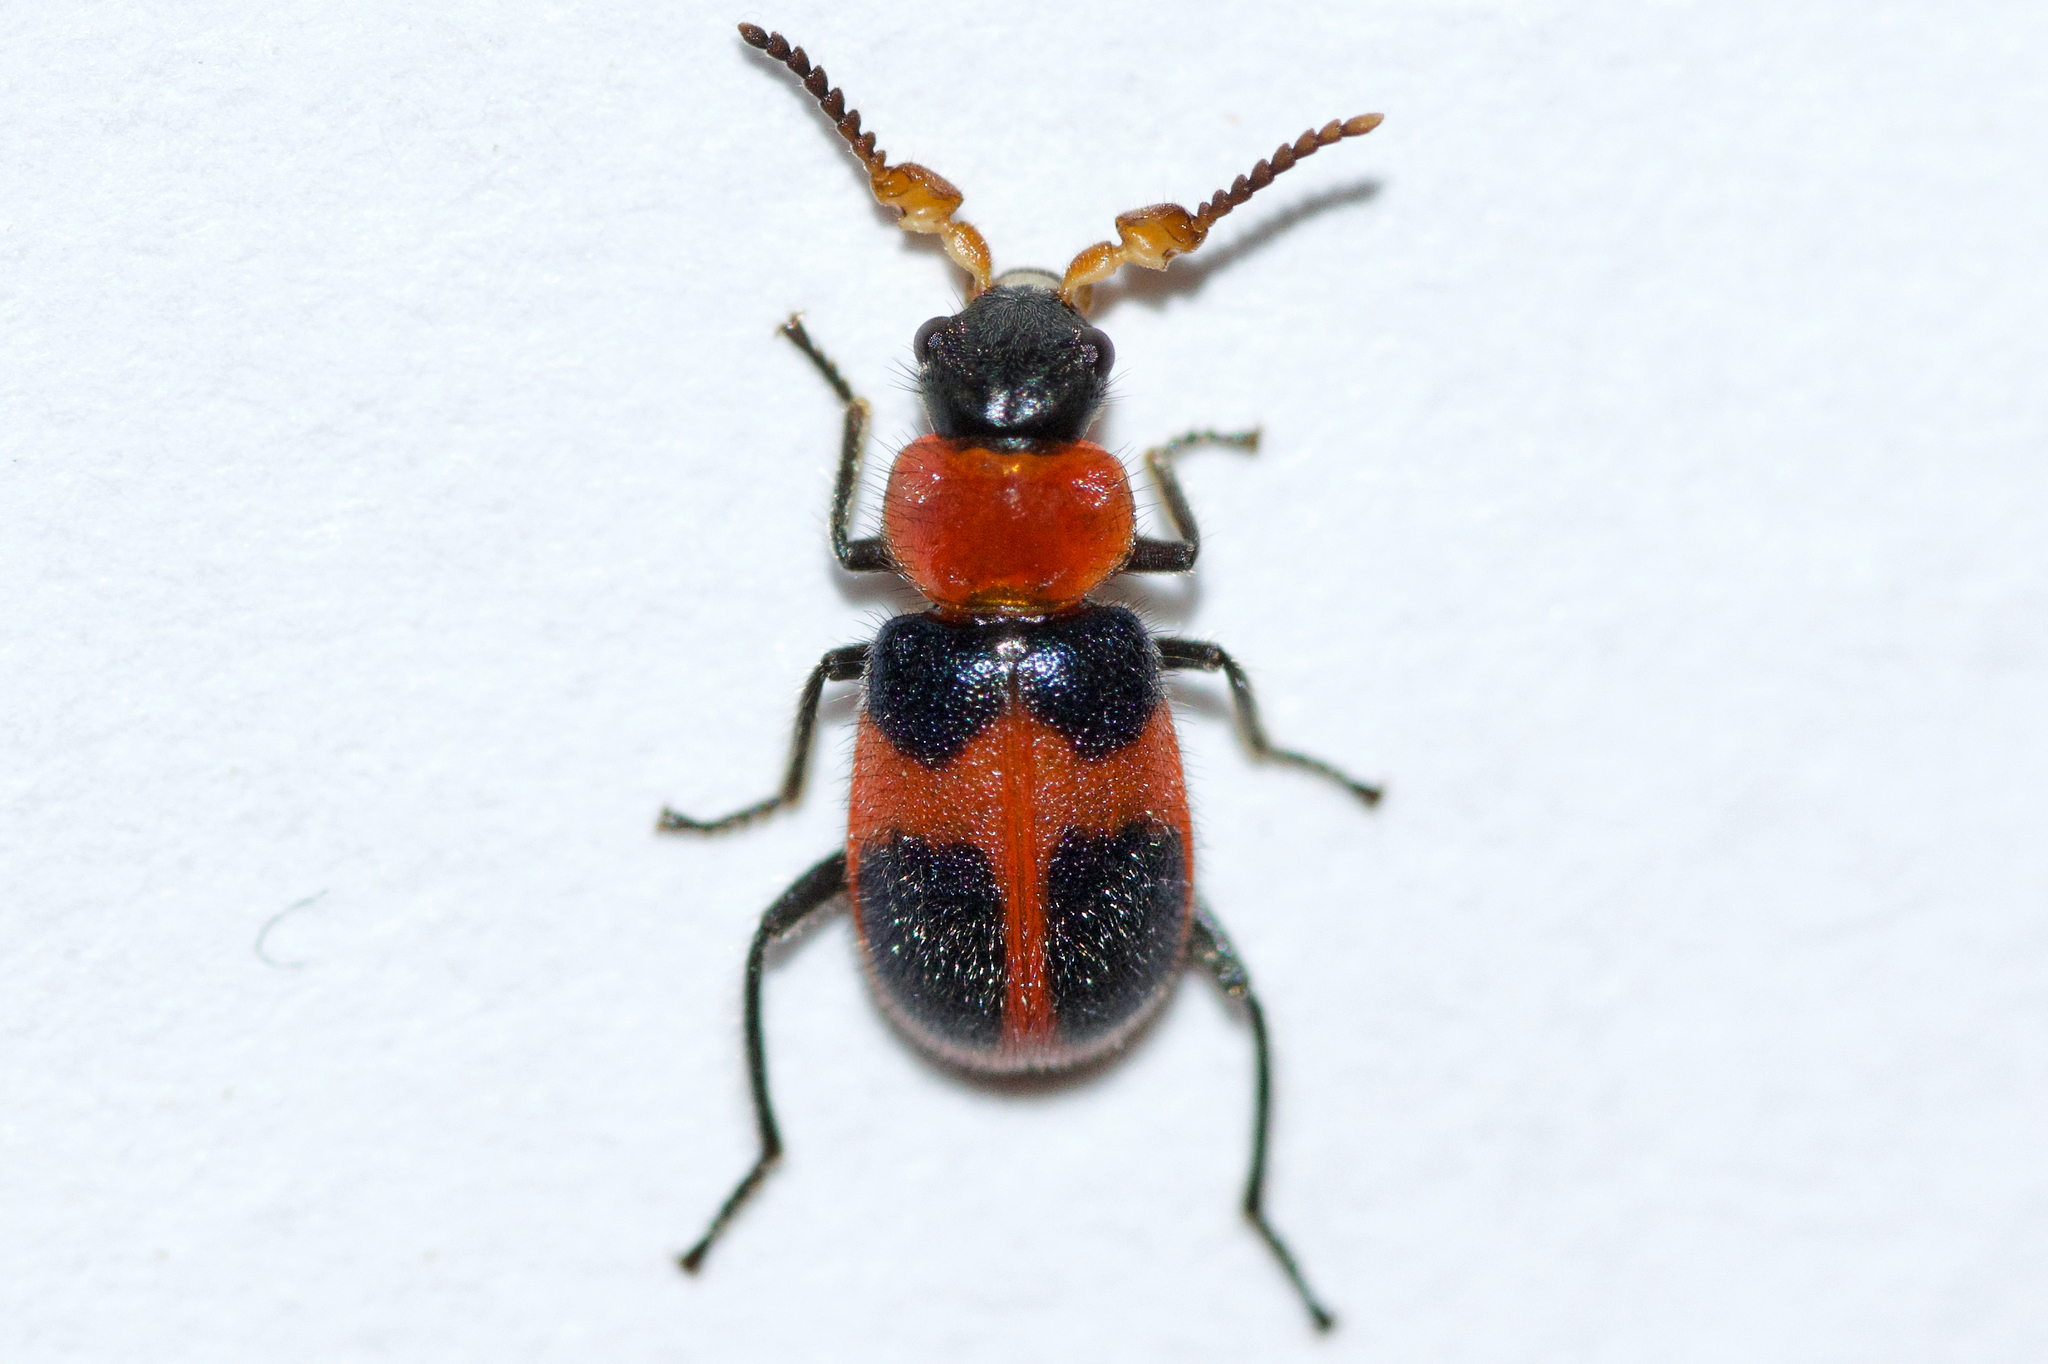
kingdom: Animalia
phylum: Arthropoda
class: Insecta
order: Coleoptera
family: Melyridae
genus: Collops
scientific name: Collops quadrimaculatus
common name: Four-spotted collops
